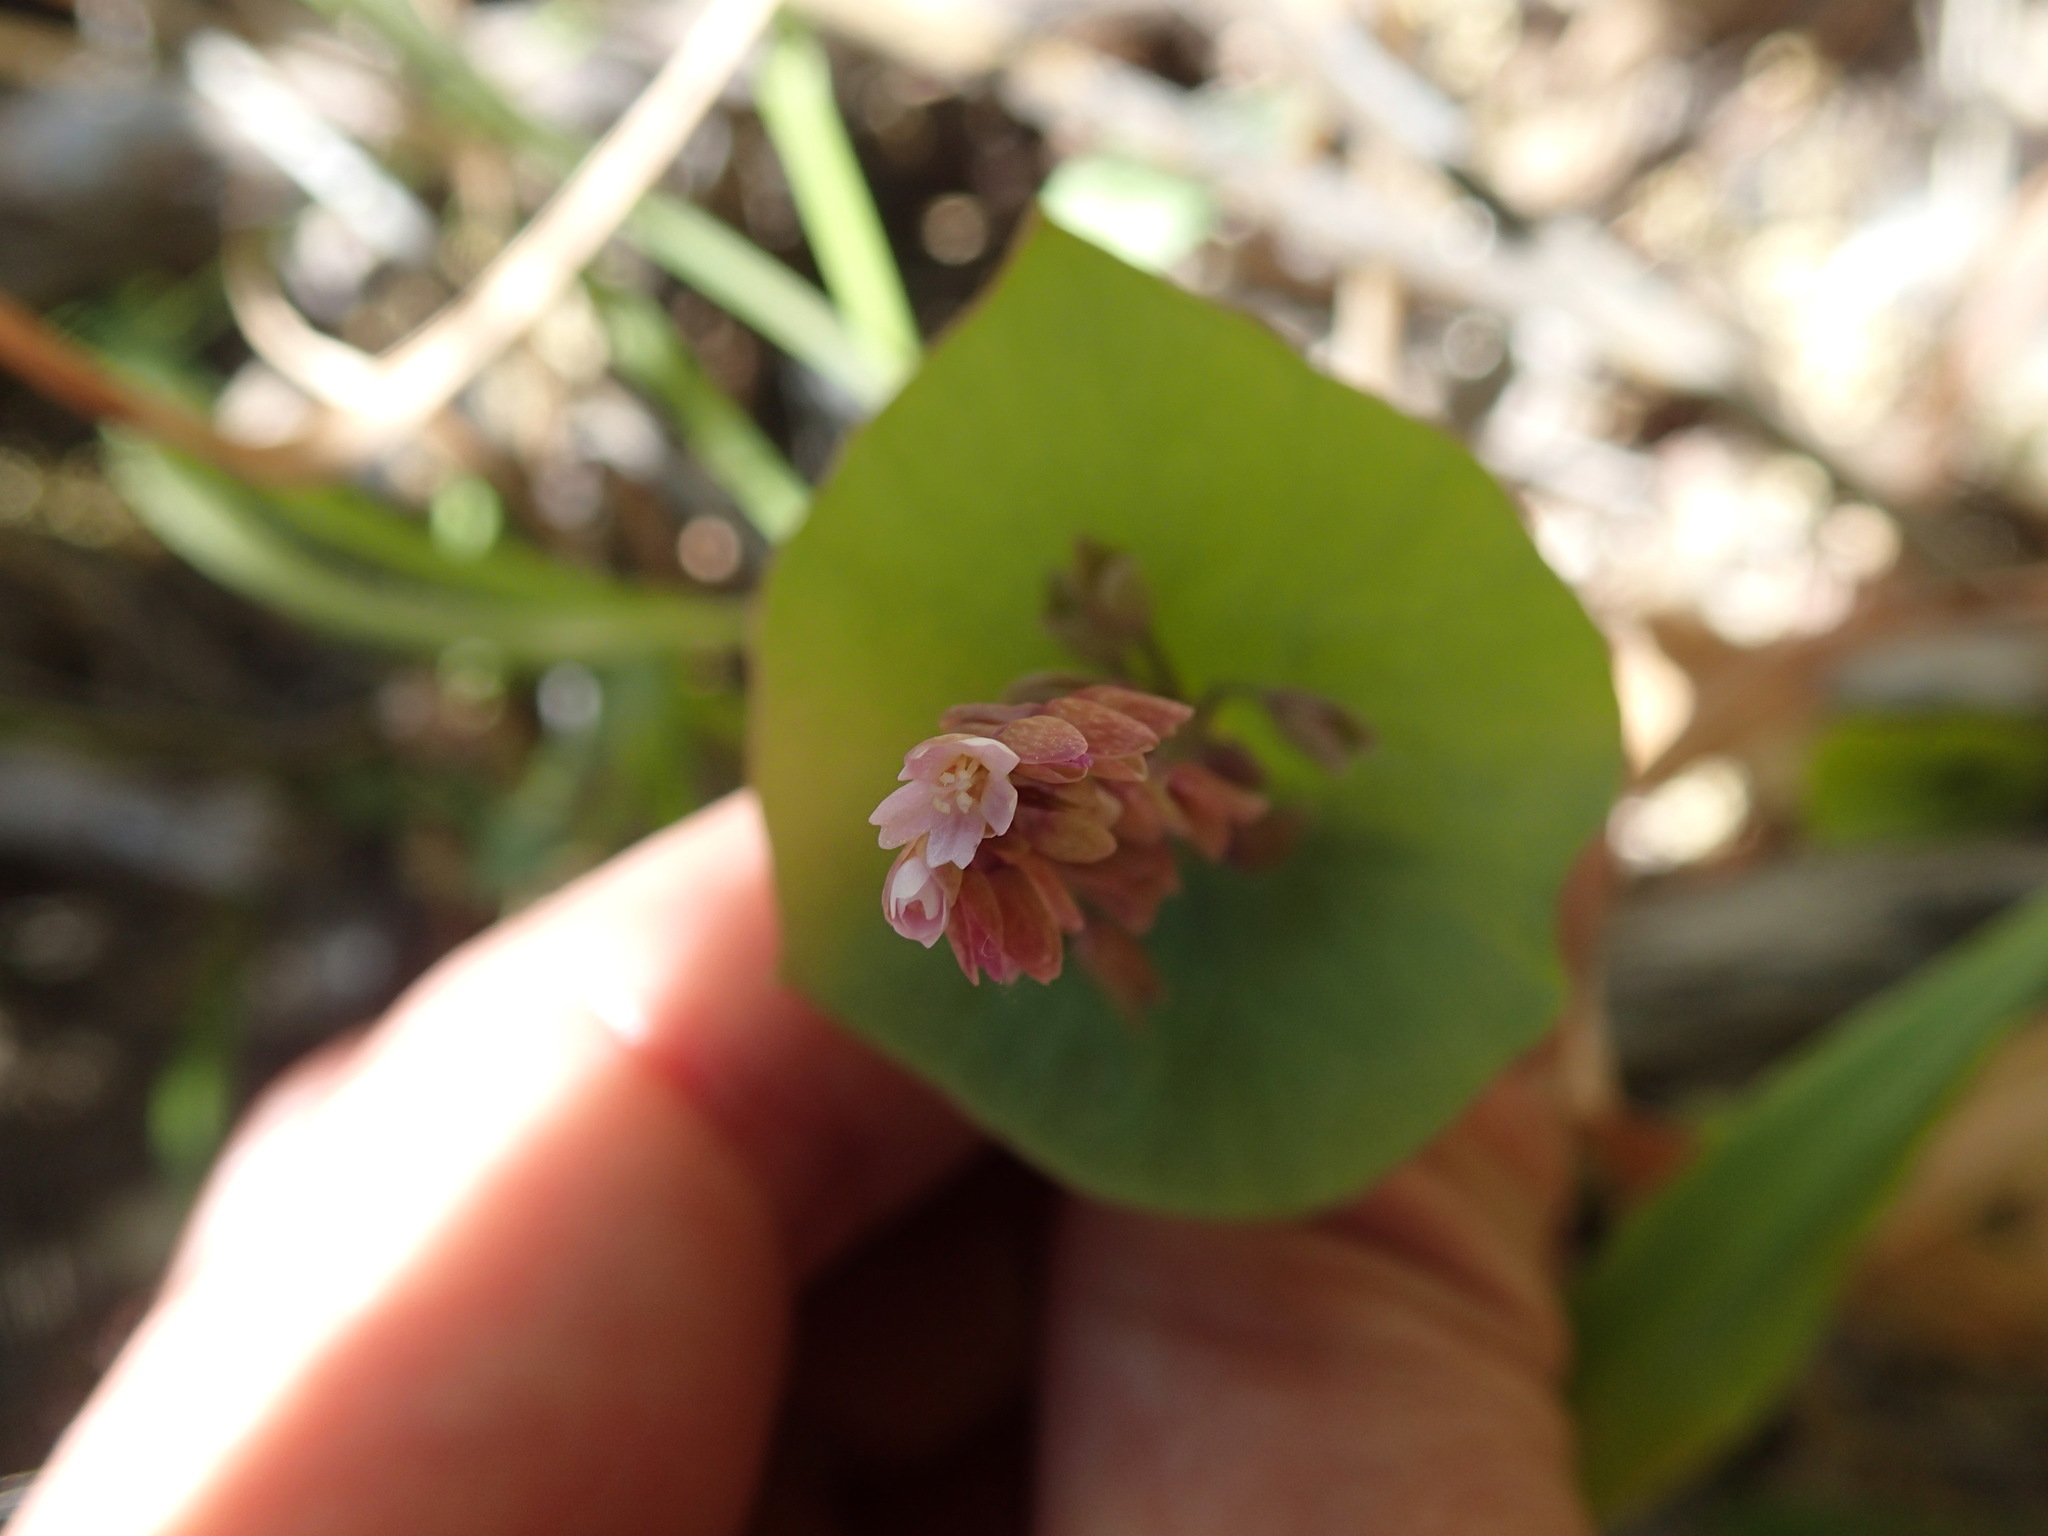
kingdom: Plantae
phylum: Tracheophyta
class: Magnoliopsida
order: Caryophyllales
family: Montiaceae
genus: Claytonia
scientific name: Claytonia perfoliata
